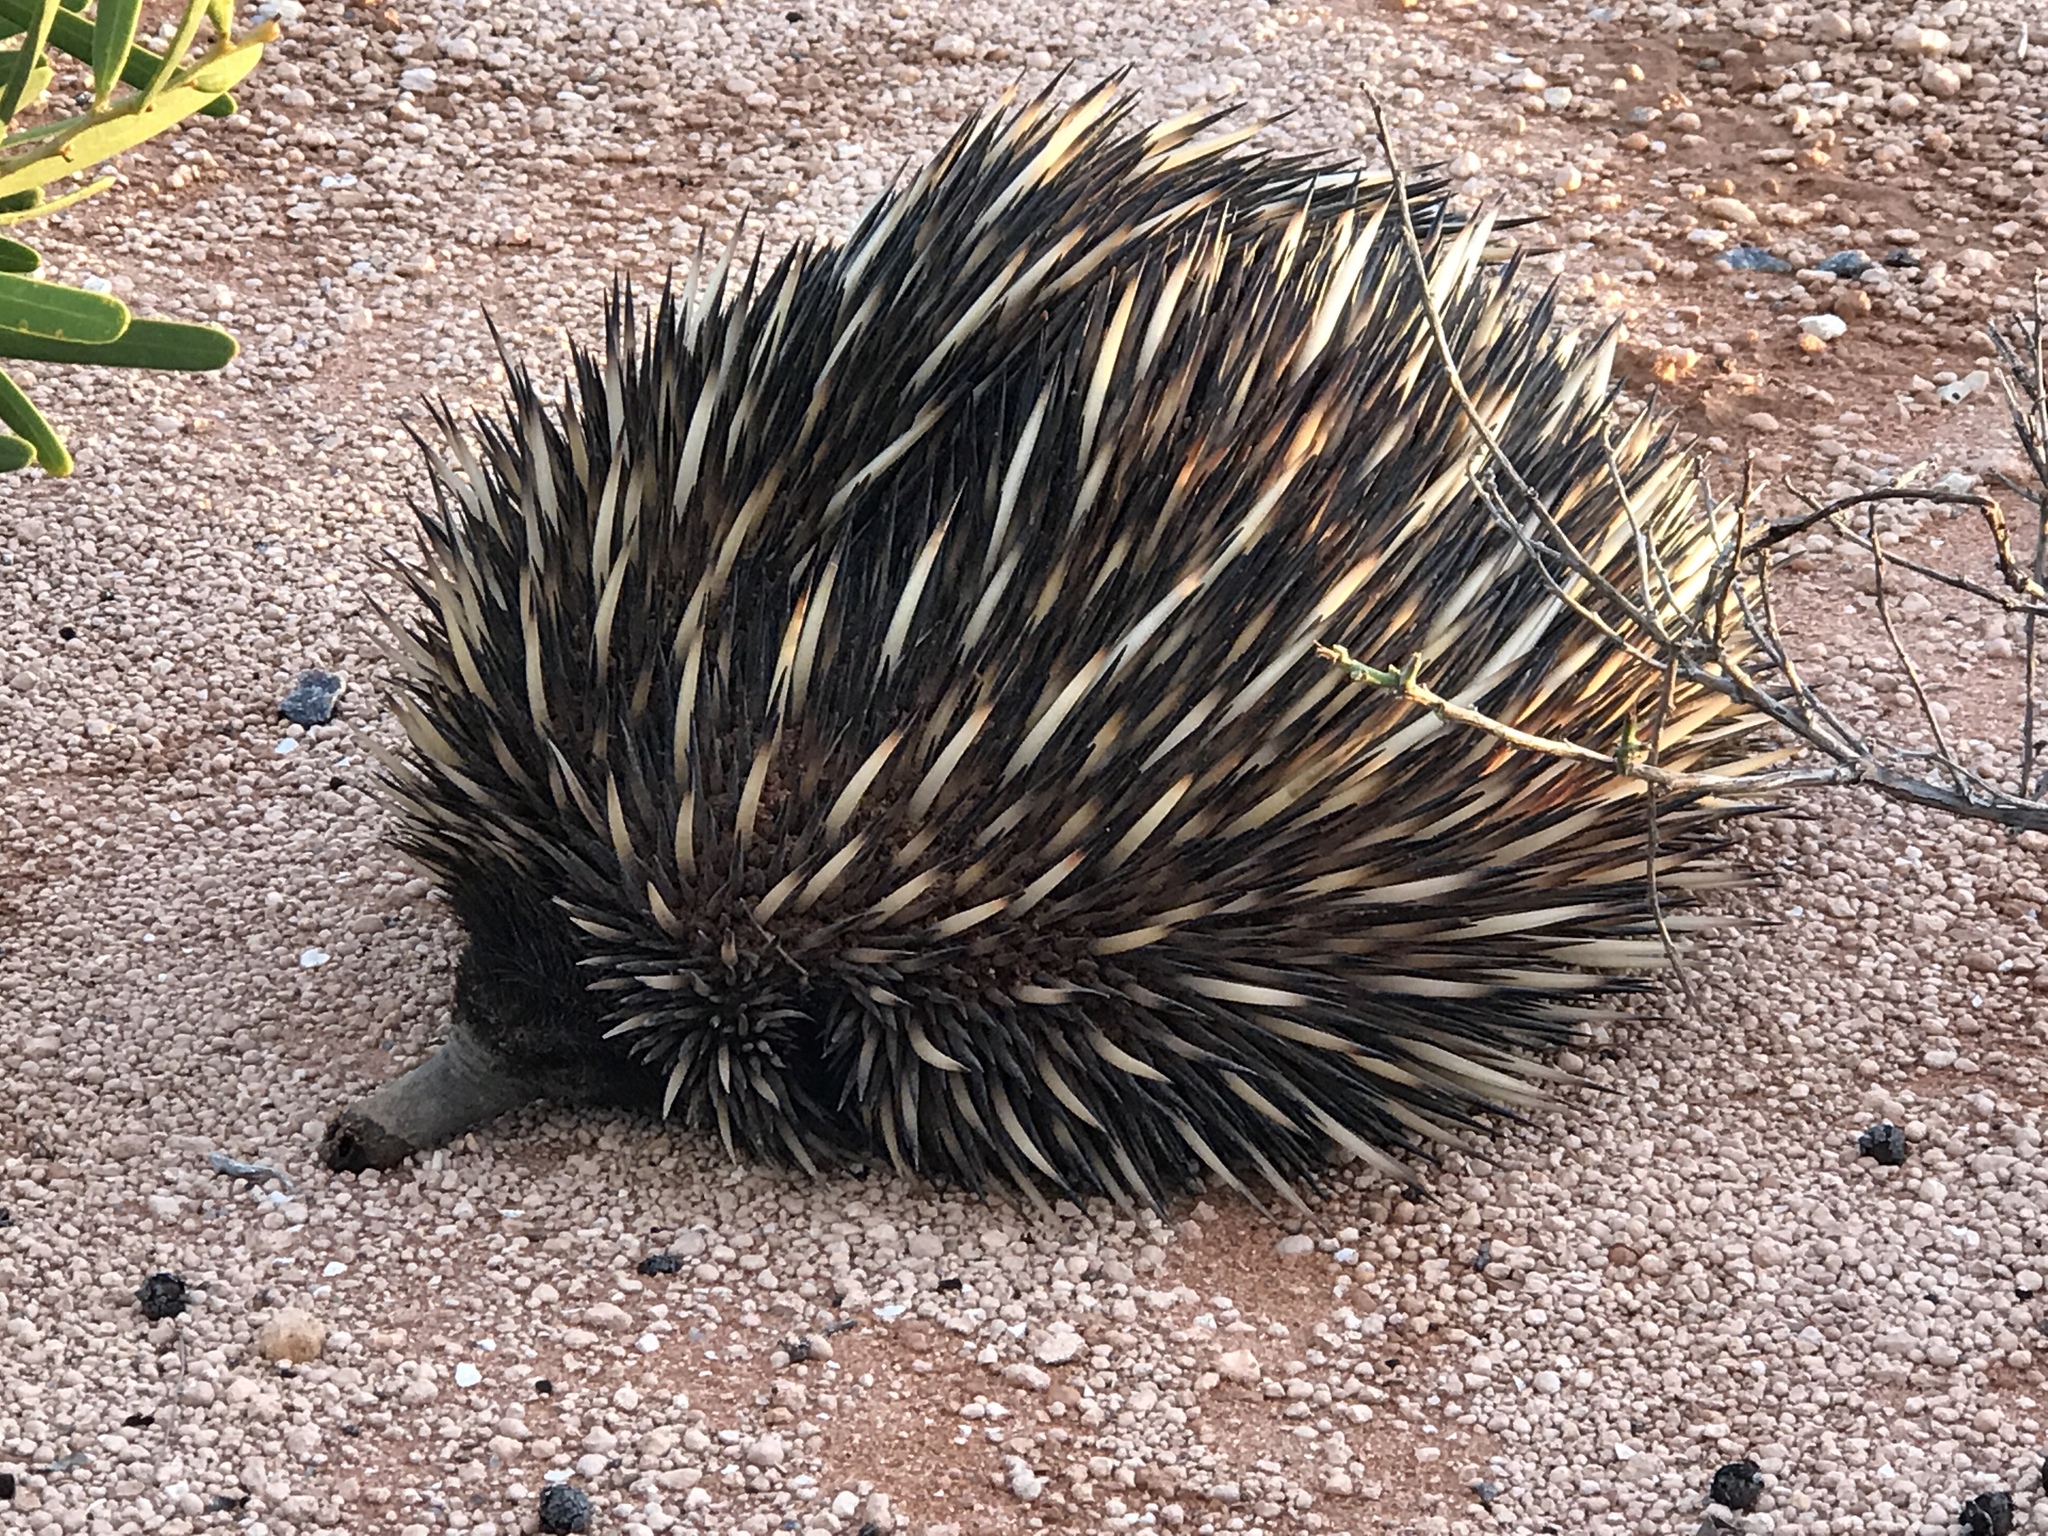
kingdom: Animalia
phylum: Chordata
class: Mammalia
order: Monotremata
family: Tachyglossidae
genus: Tachyglossus
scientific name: Tachyglossus aculeatus
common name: Short-beaked echidna
